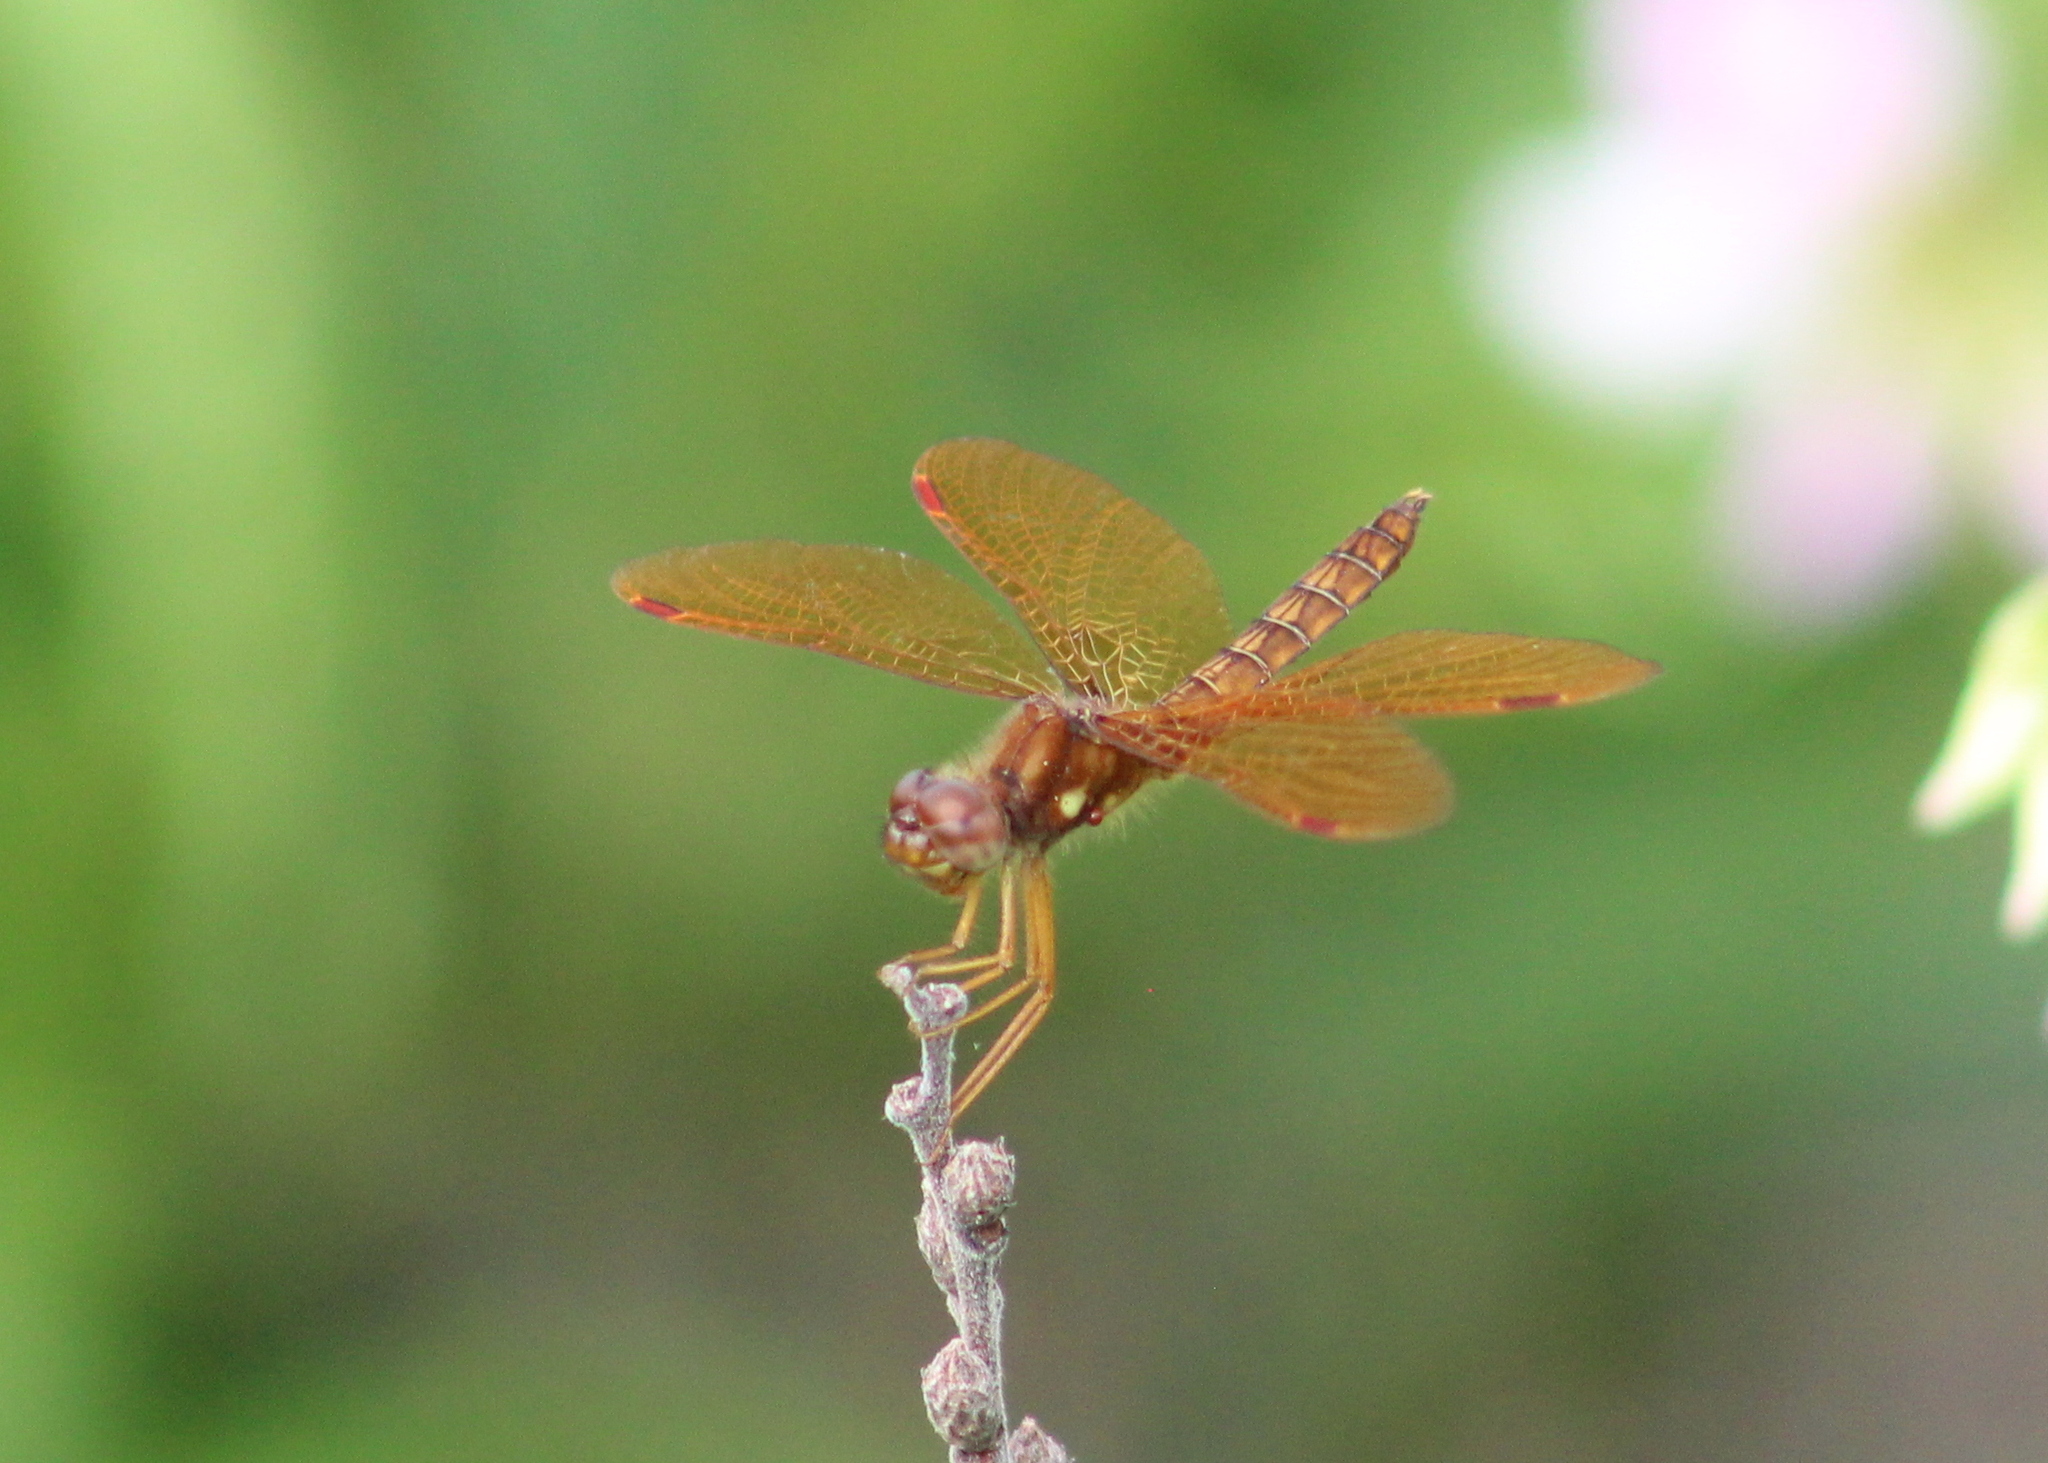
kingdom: Animalia
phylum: Arthropoda
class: Insecta
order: Odonata
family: Libellulidae
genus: Perithemis
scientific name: Perithemis tenera
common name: Eastern amberwing
